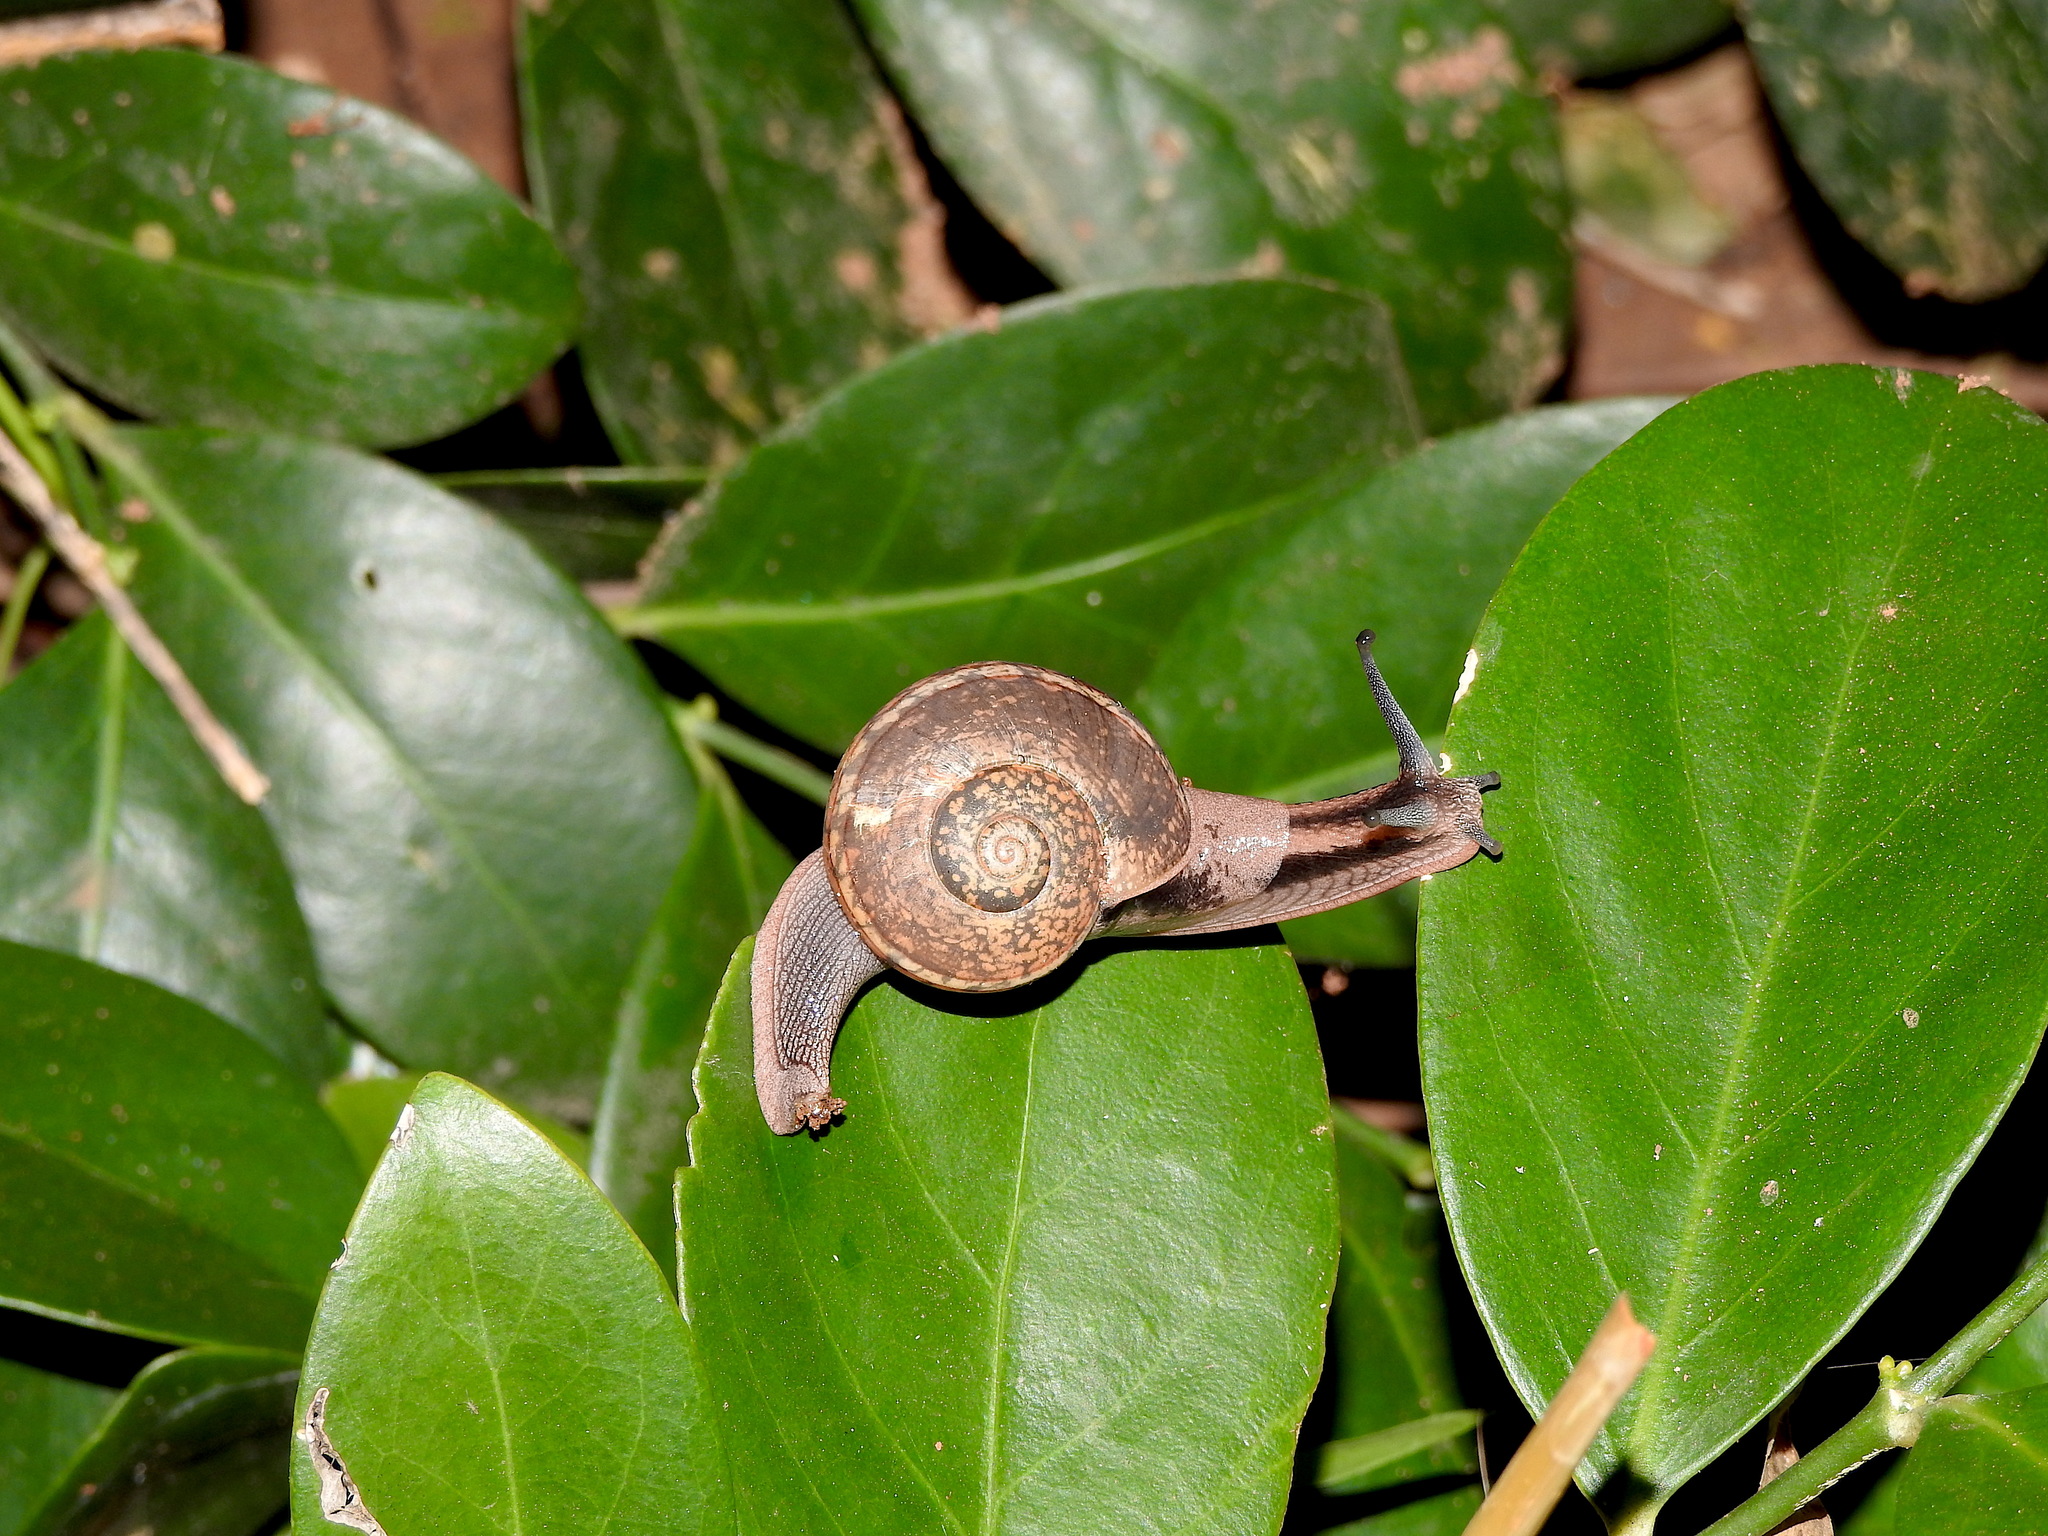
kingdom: Animalia
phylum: Mollusca
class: Gastropoda
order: Stylommatophora
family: Ariophantidae
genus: Ariophanta
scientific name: Ariophanta exilis
